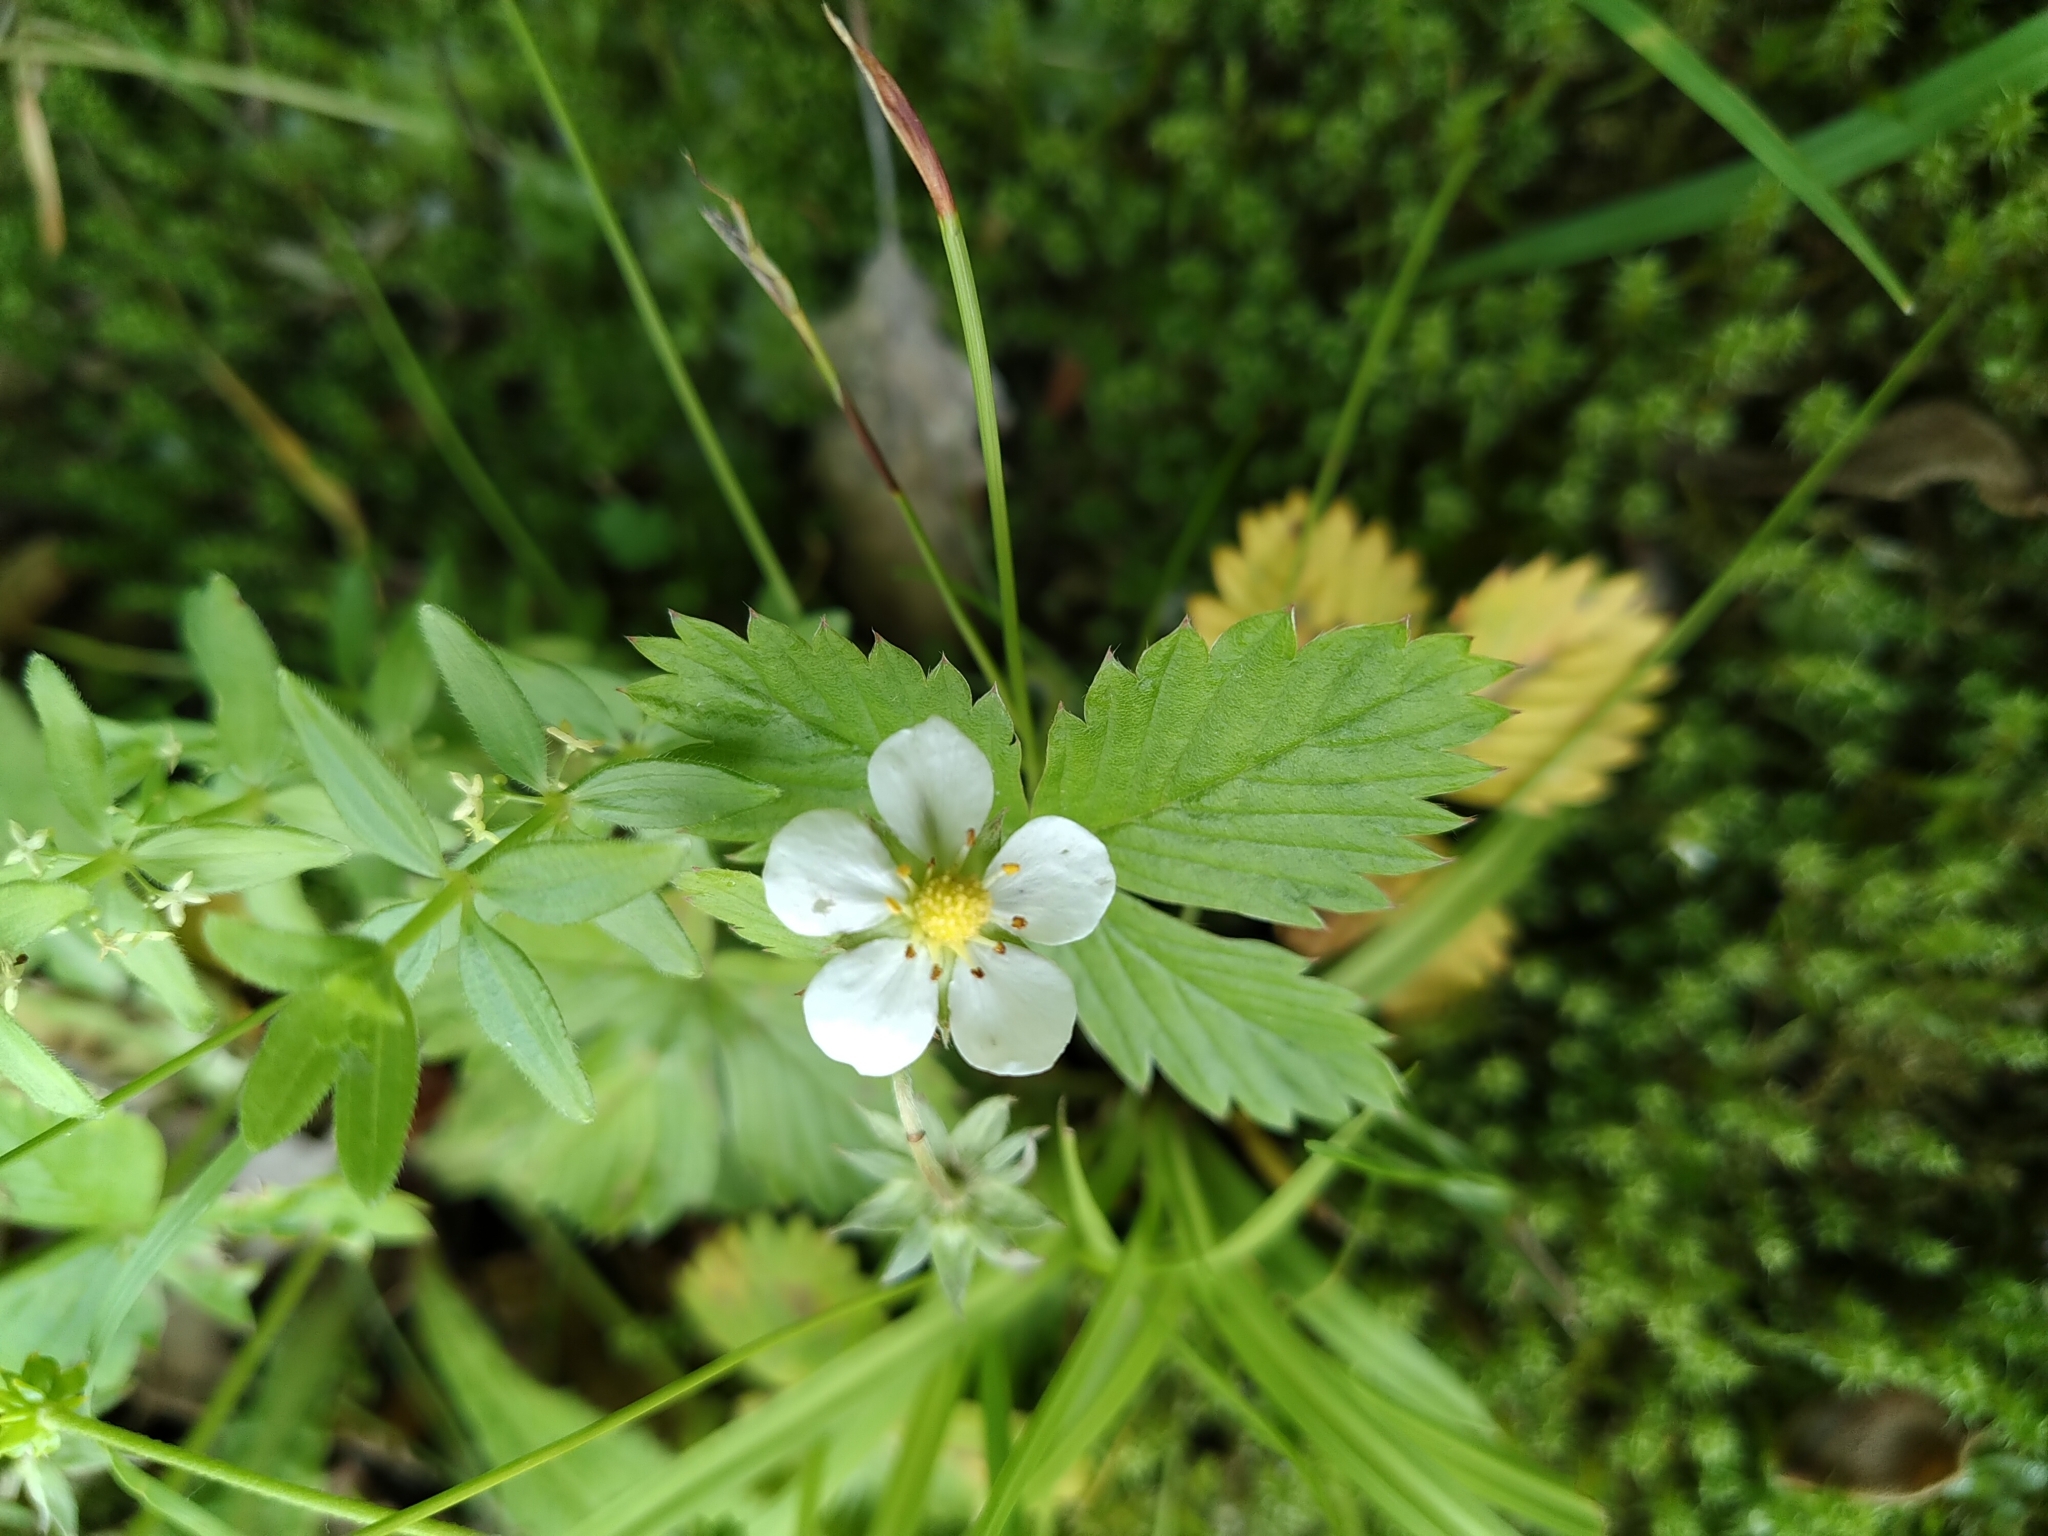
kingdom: Plantae
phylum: Tracheophyta
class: Magnoliopsida
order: Rosales
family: Rosaceae
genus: Fragaria
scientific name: Fragaria vesca
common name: Wild strawberry
